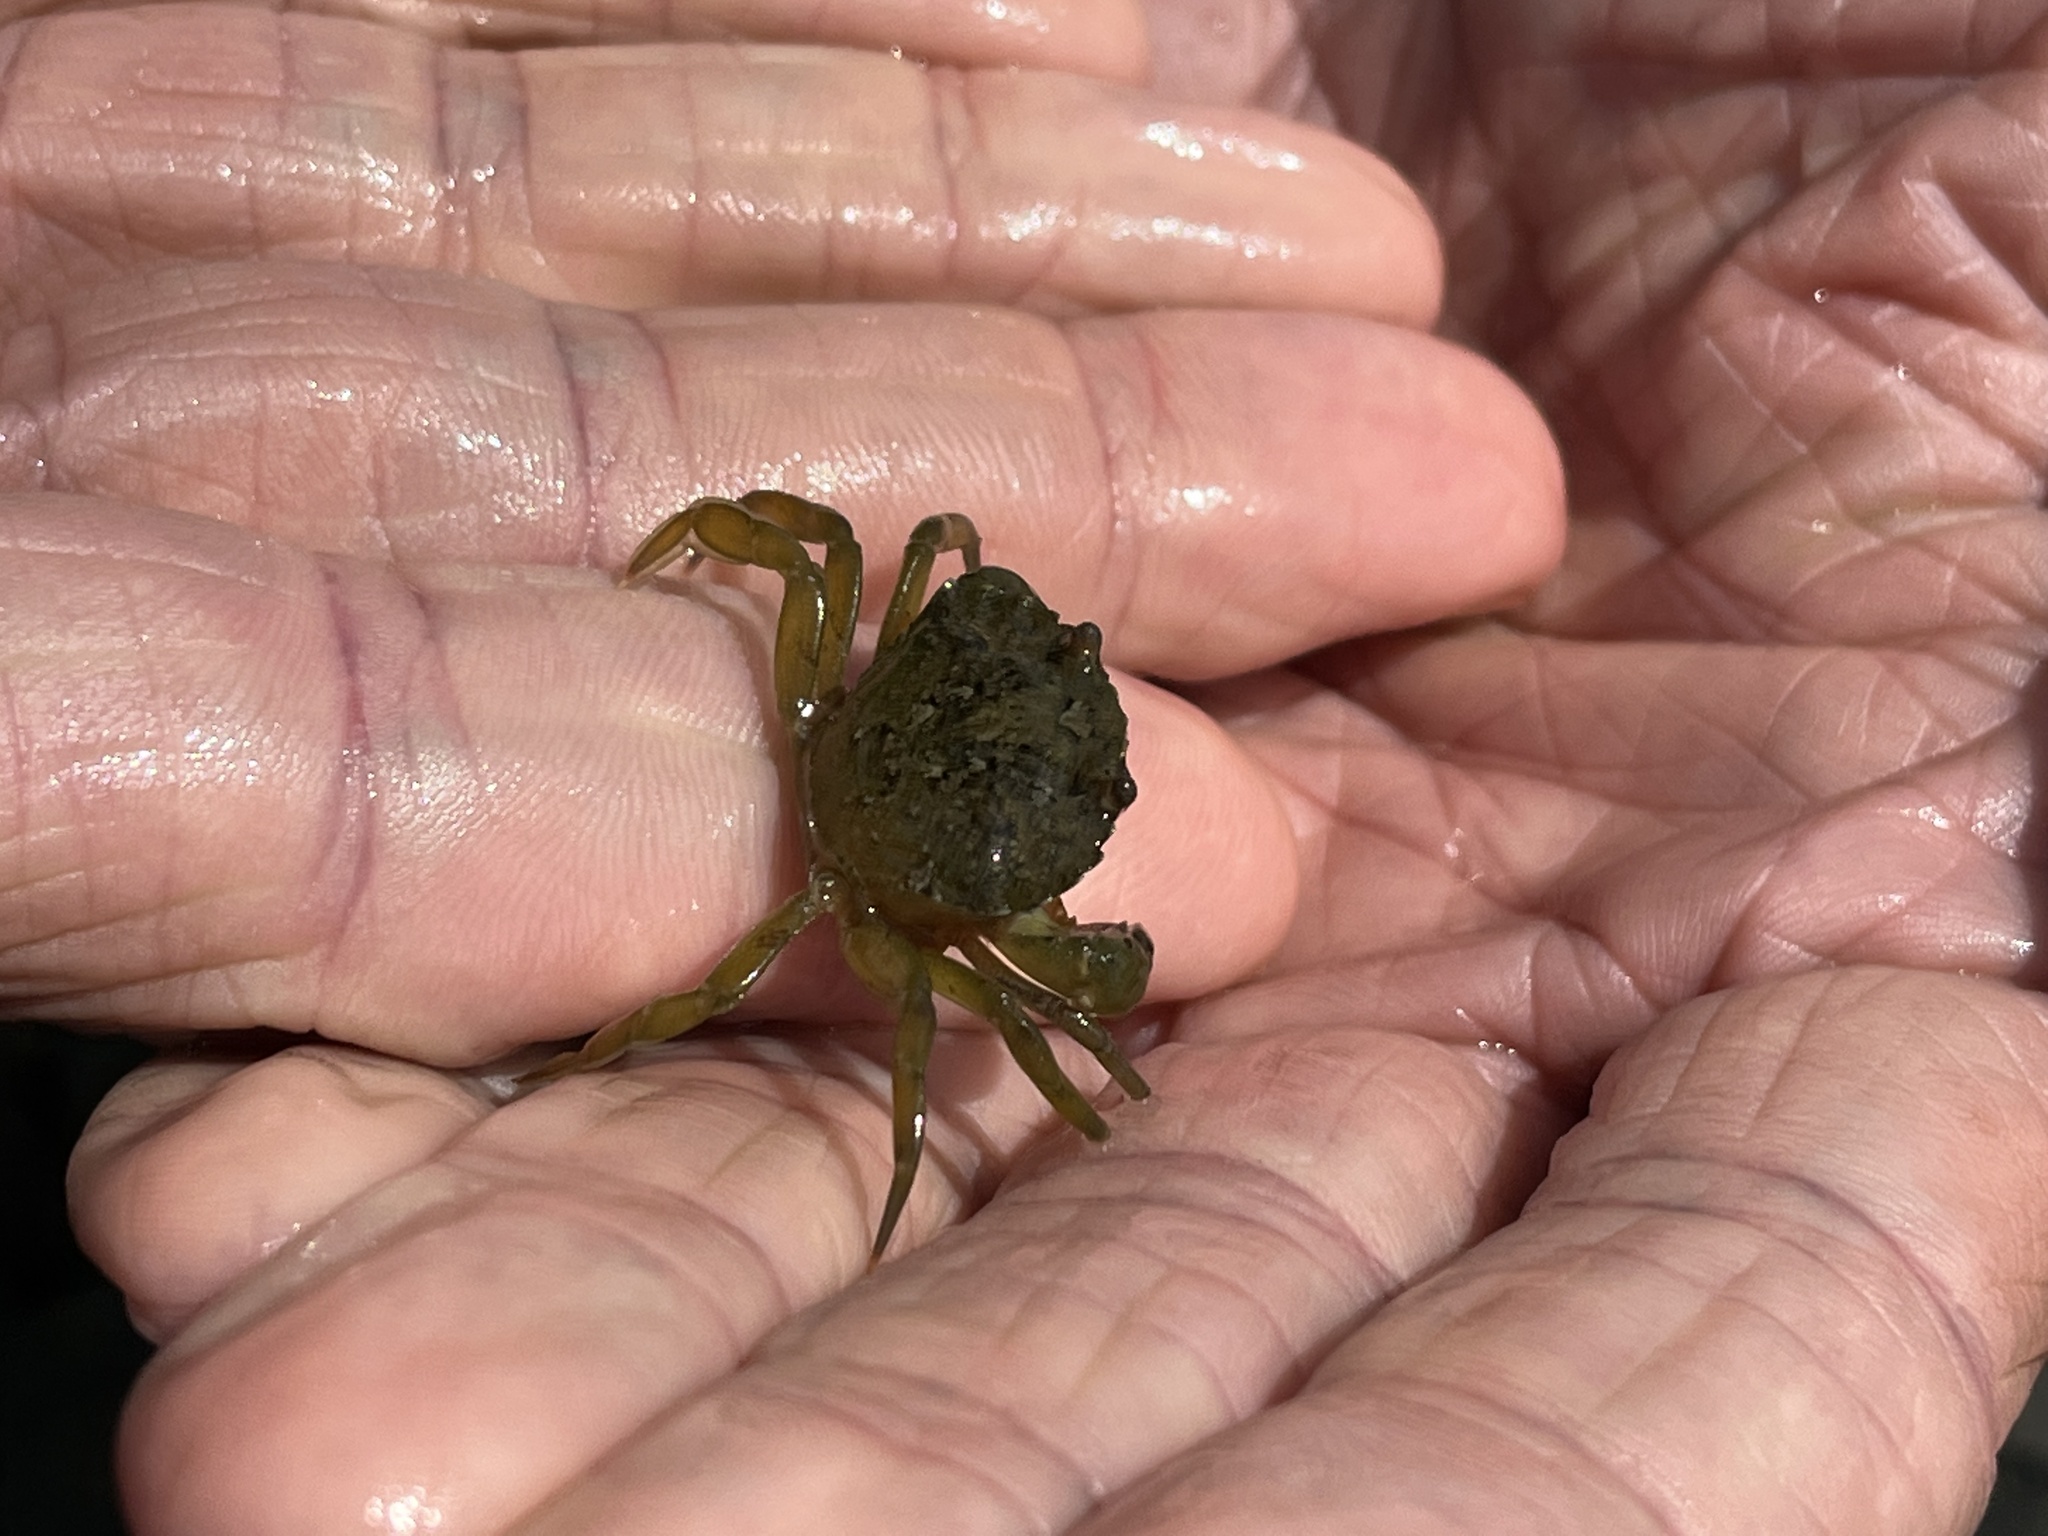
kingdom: Animalia
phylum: Arthropoda
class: Malacostraca
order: Decapoda
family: Carcinidae
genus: Carcinus
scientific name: Carcinus maenas
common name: European green crab
